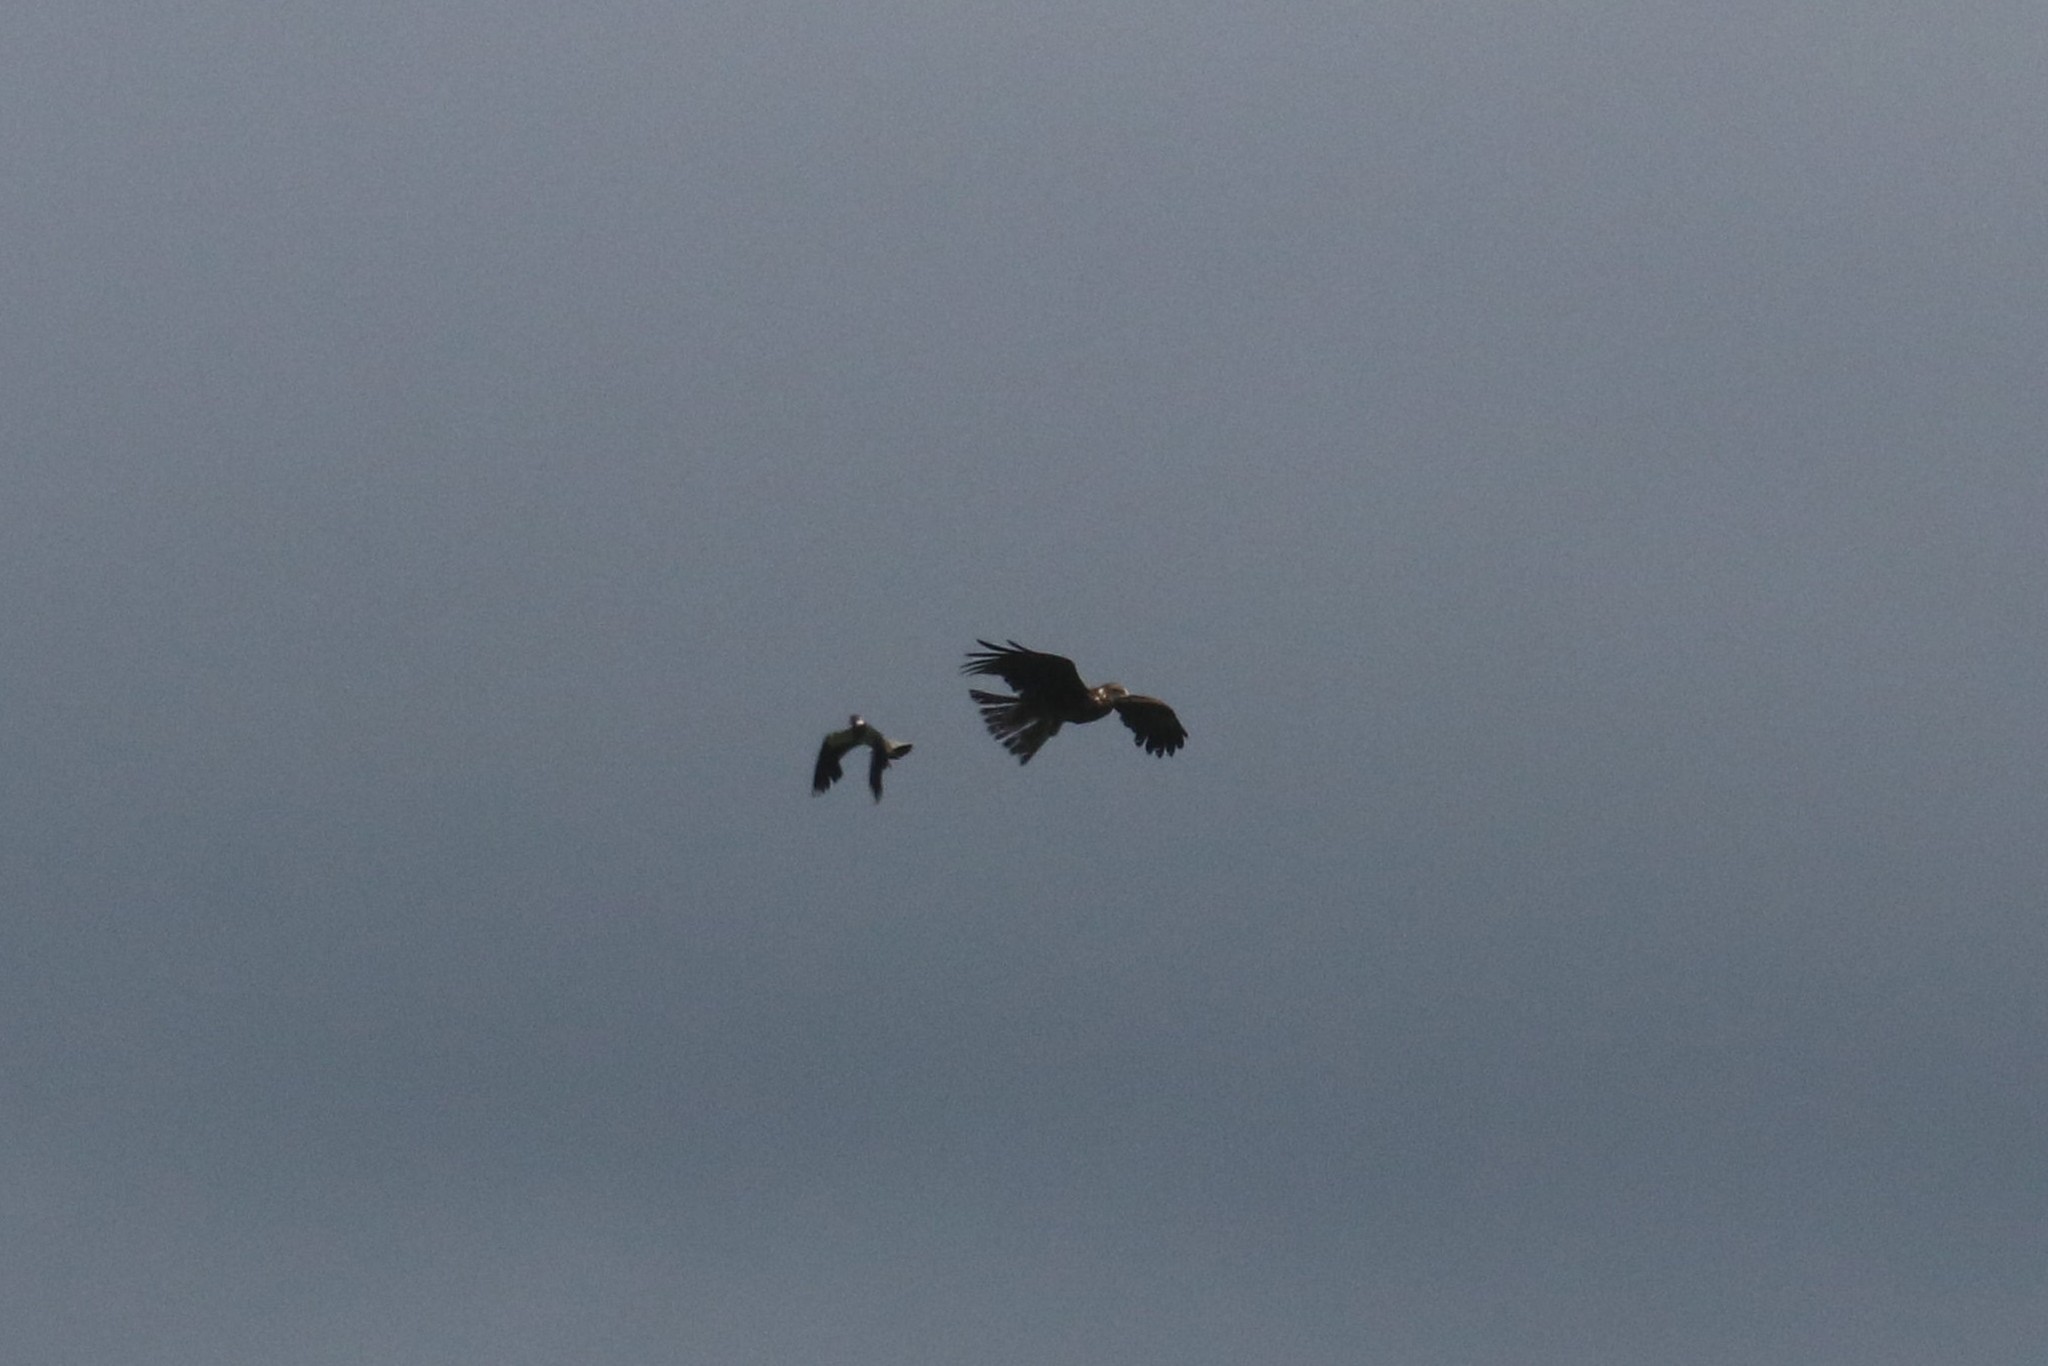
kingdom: Animalia
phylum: Chordata
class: Aves
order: Accipitriformes
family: Accipitridae
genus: Milvus
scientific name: Milvus migrans
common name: Black kite
